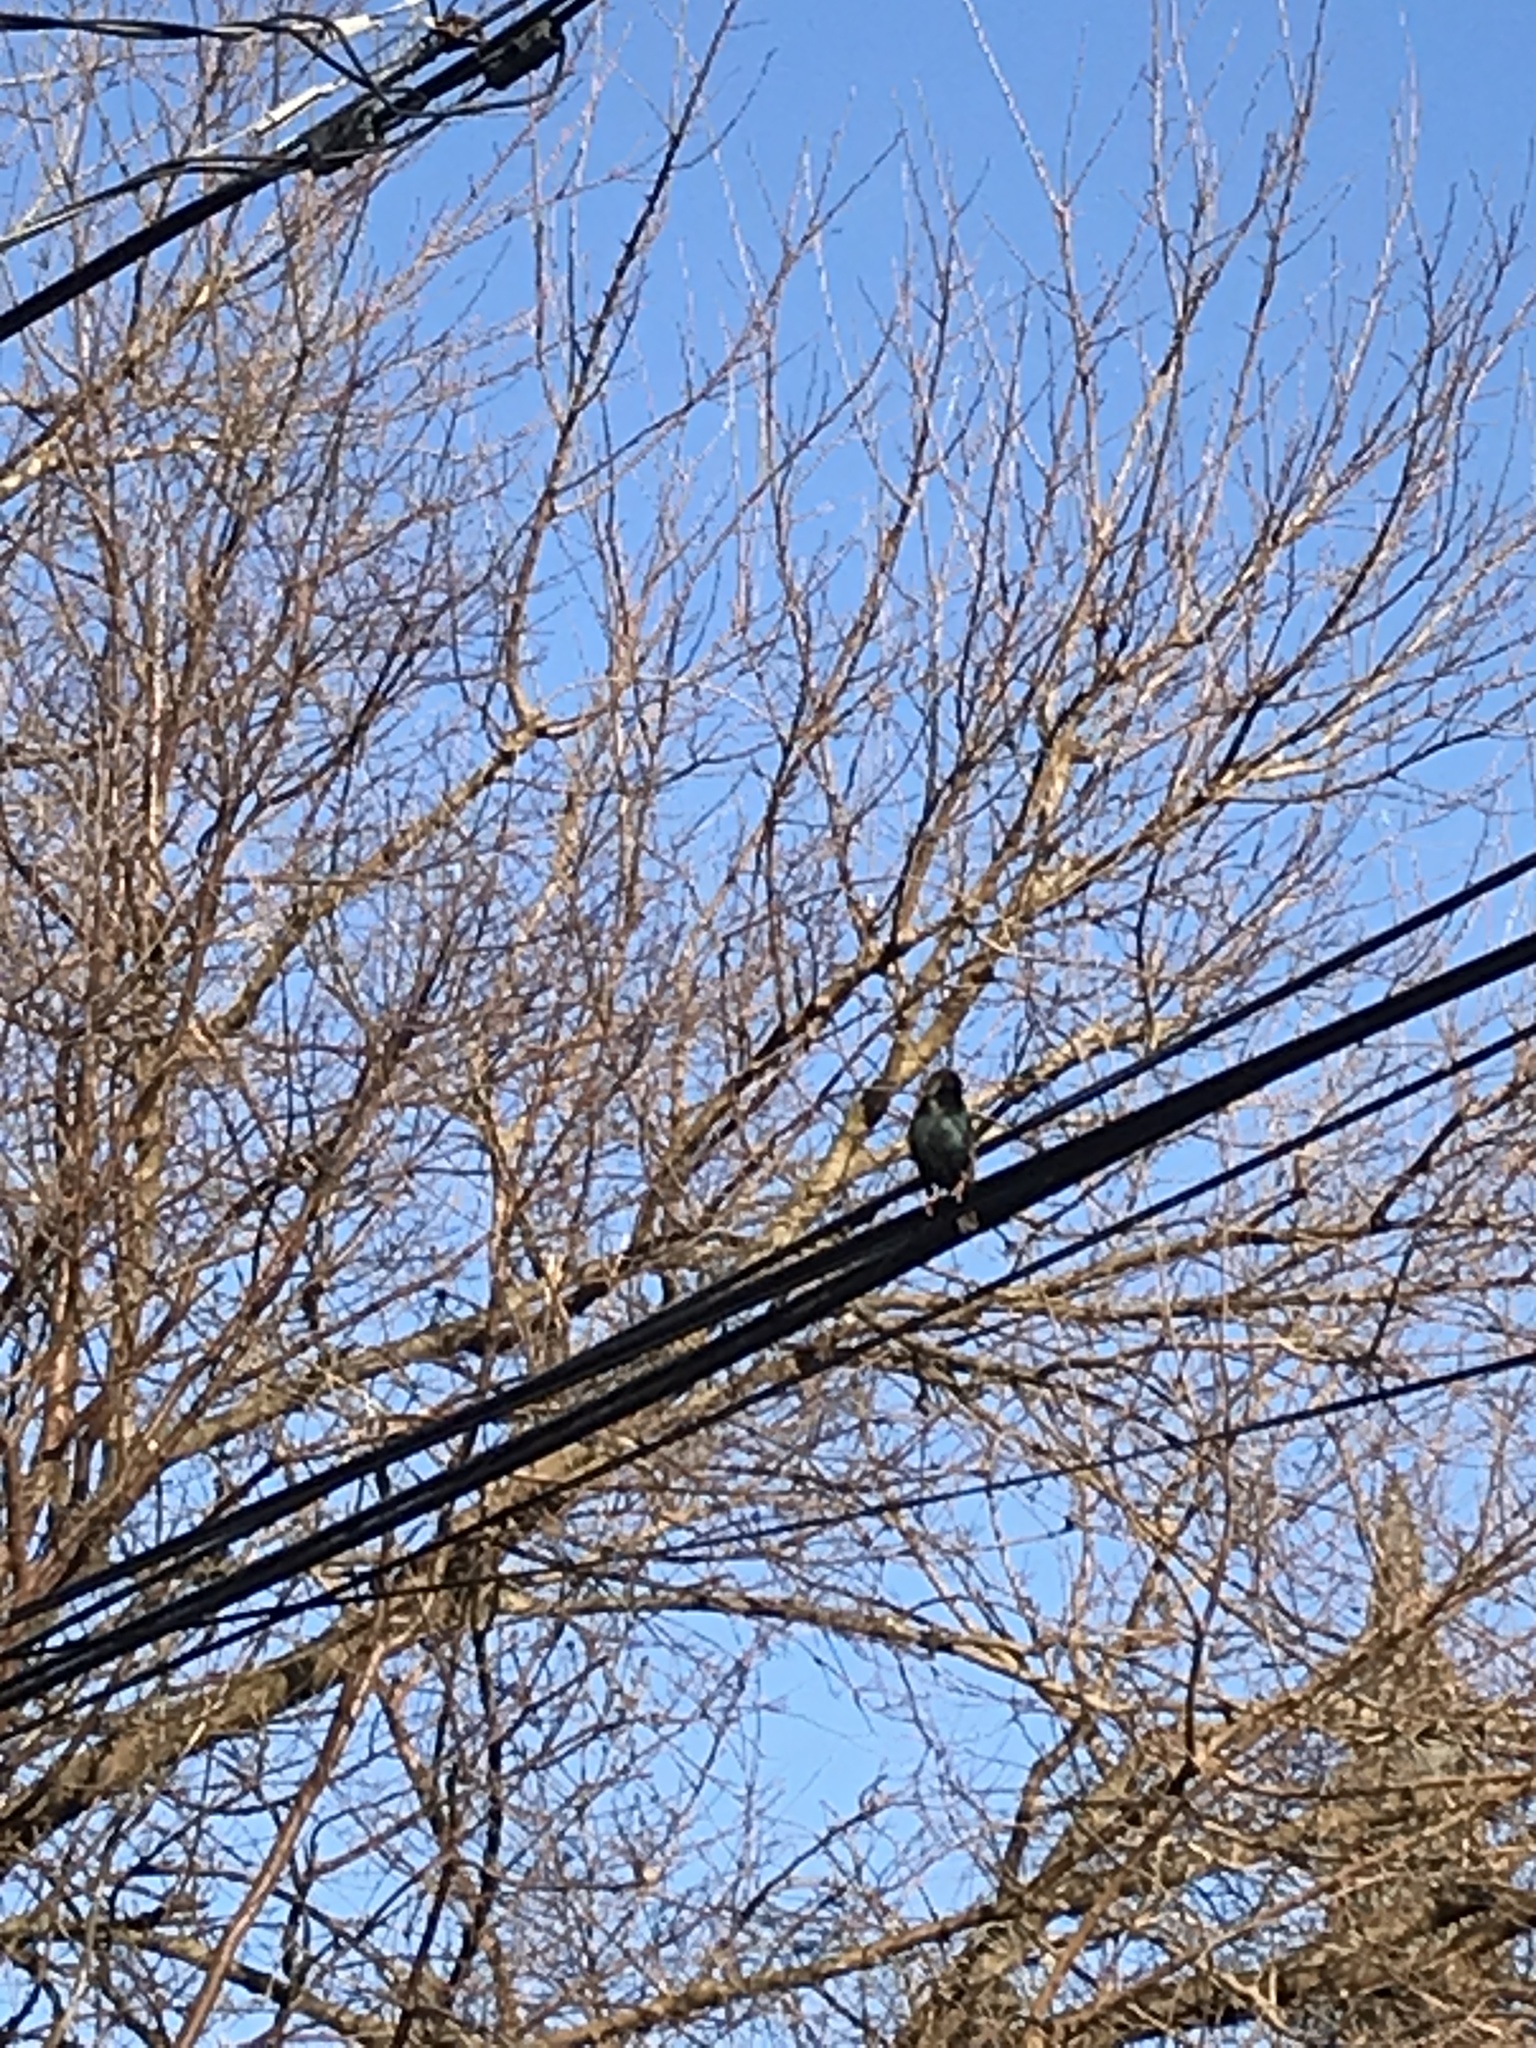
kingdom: Animalia
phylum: Chordata
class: Aves
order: Passeriformes
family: Sturnidae
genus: Sturnus
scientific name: Sturnus vulgaris
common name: Common starling
